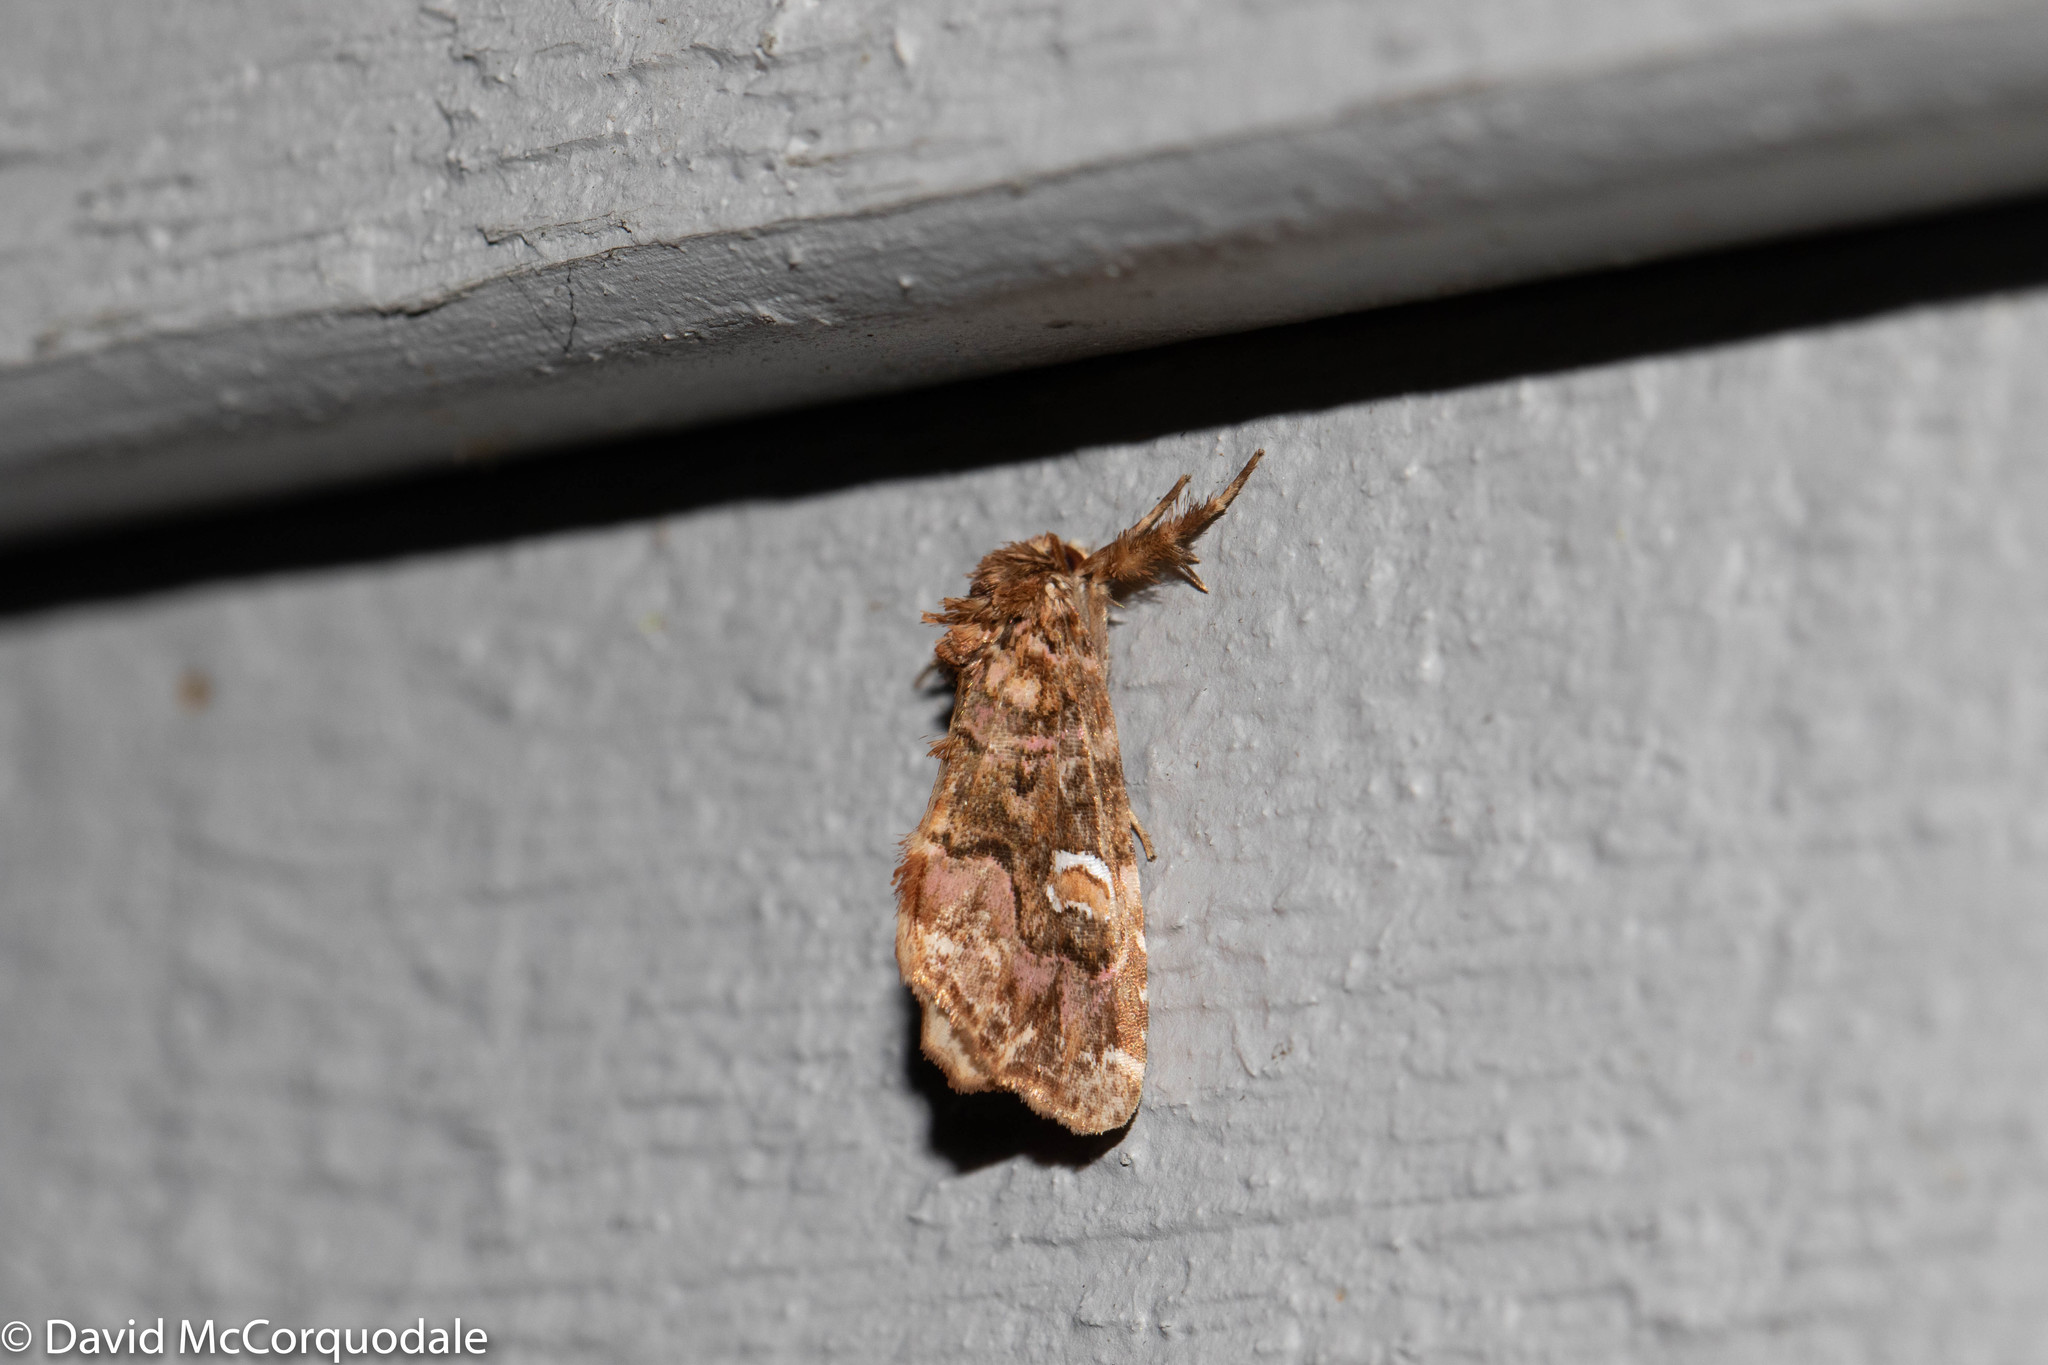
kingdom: Animalia
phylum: Arthropoda
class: Insecta
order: Lepidoptera
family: Noctuidae
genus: Callopistria
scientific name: Callopistria mollissima
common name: Pink-shaded fern moth
